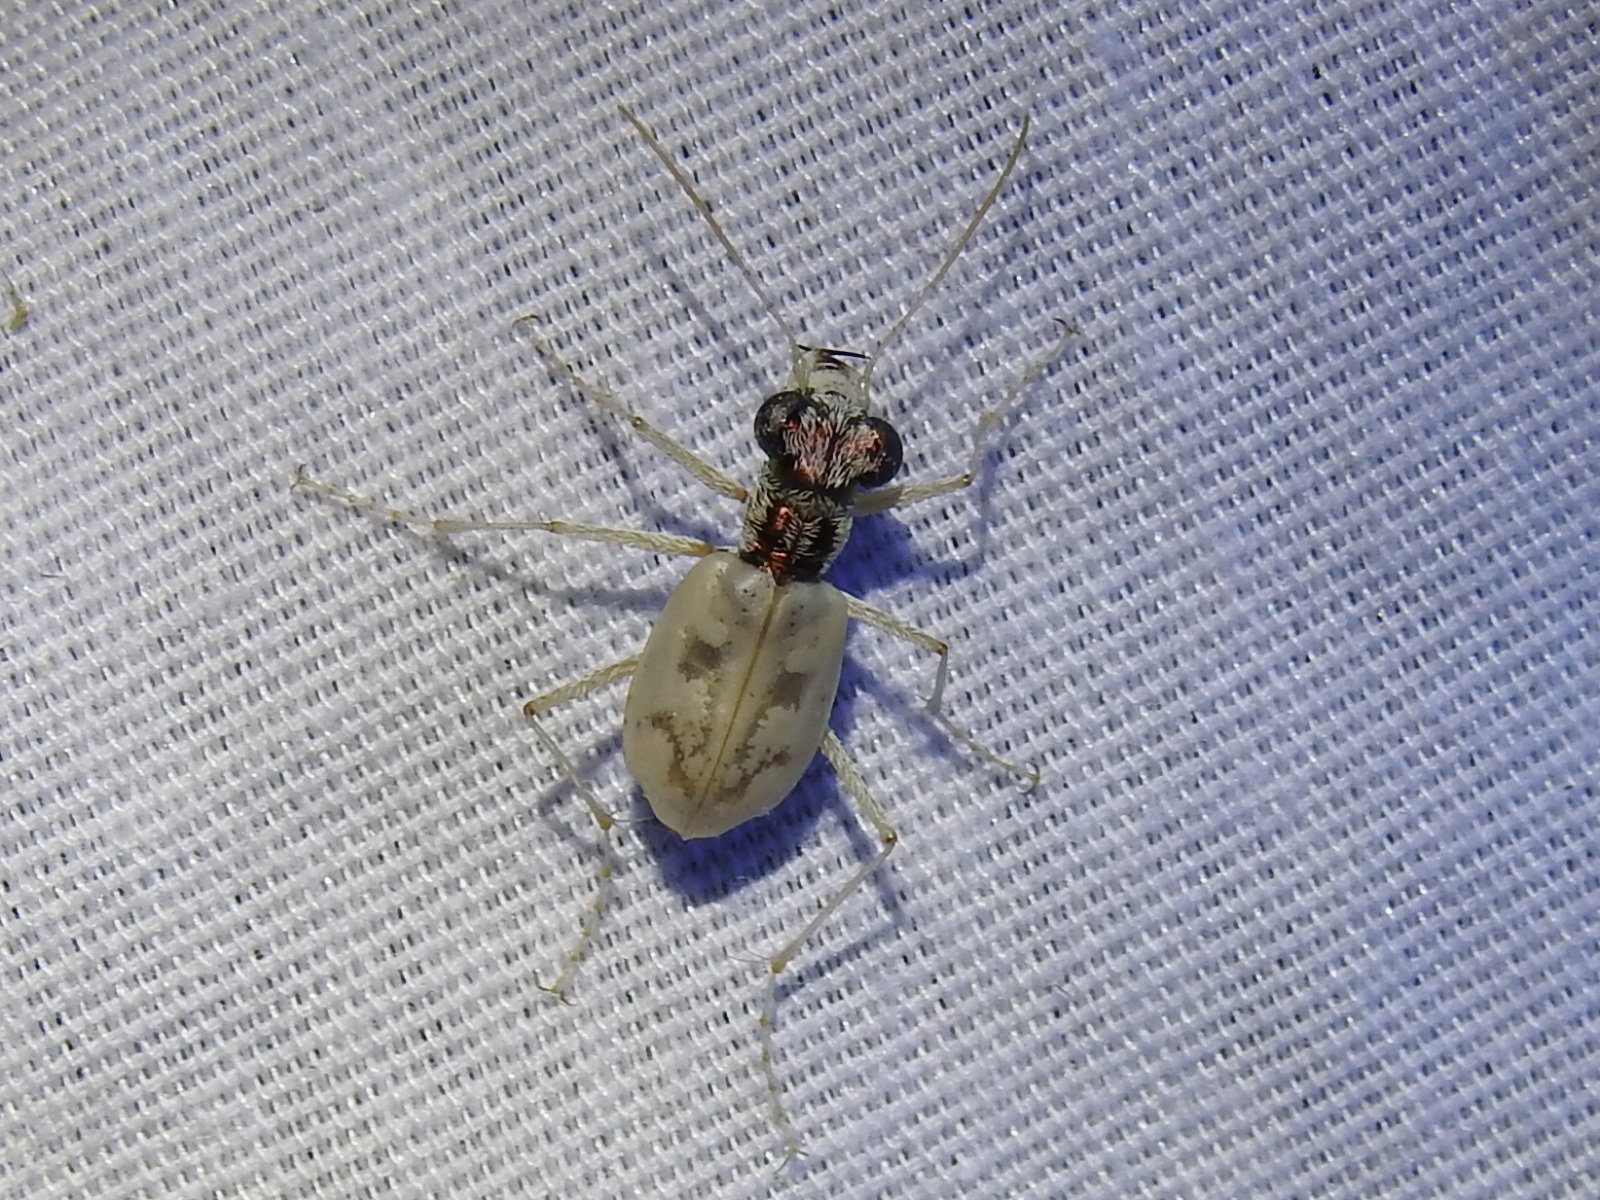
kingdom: Animalia
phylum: Arthropoda
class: Insecta
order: Coleoptera
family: Carabidae
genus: Ellipsoptera
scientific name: Ellipsoptera lepida
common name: Ghost tiger beetle
